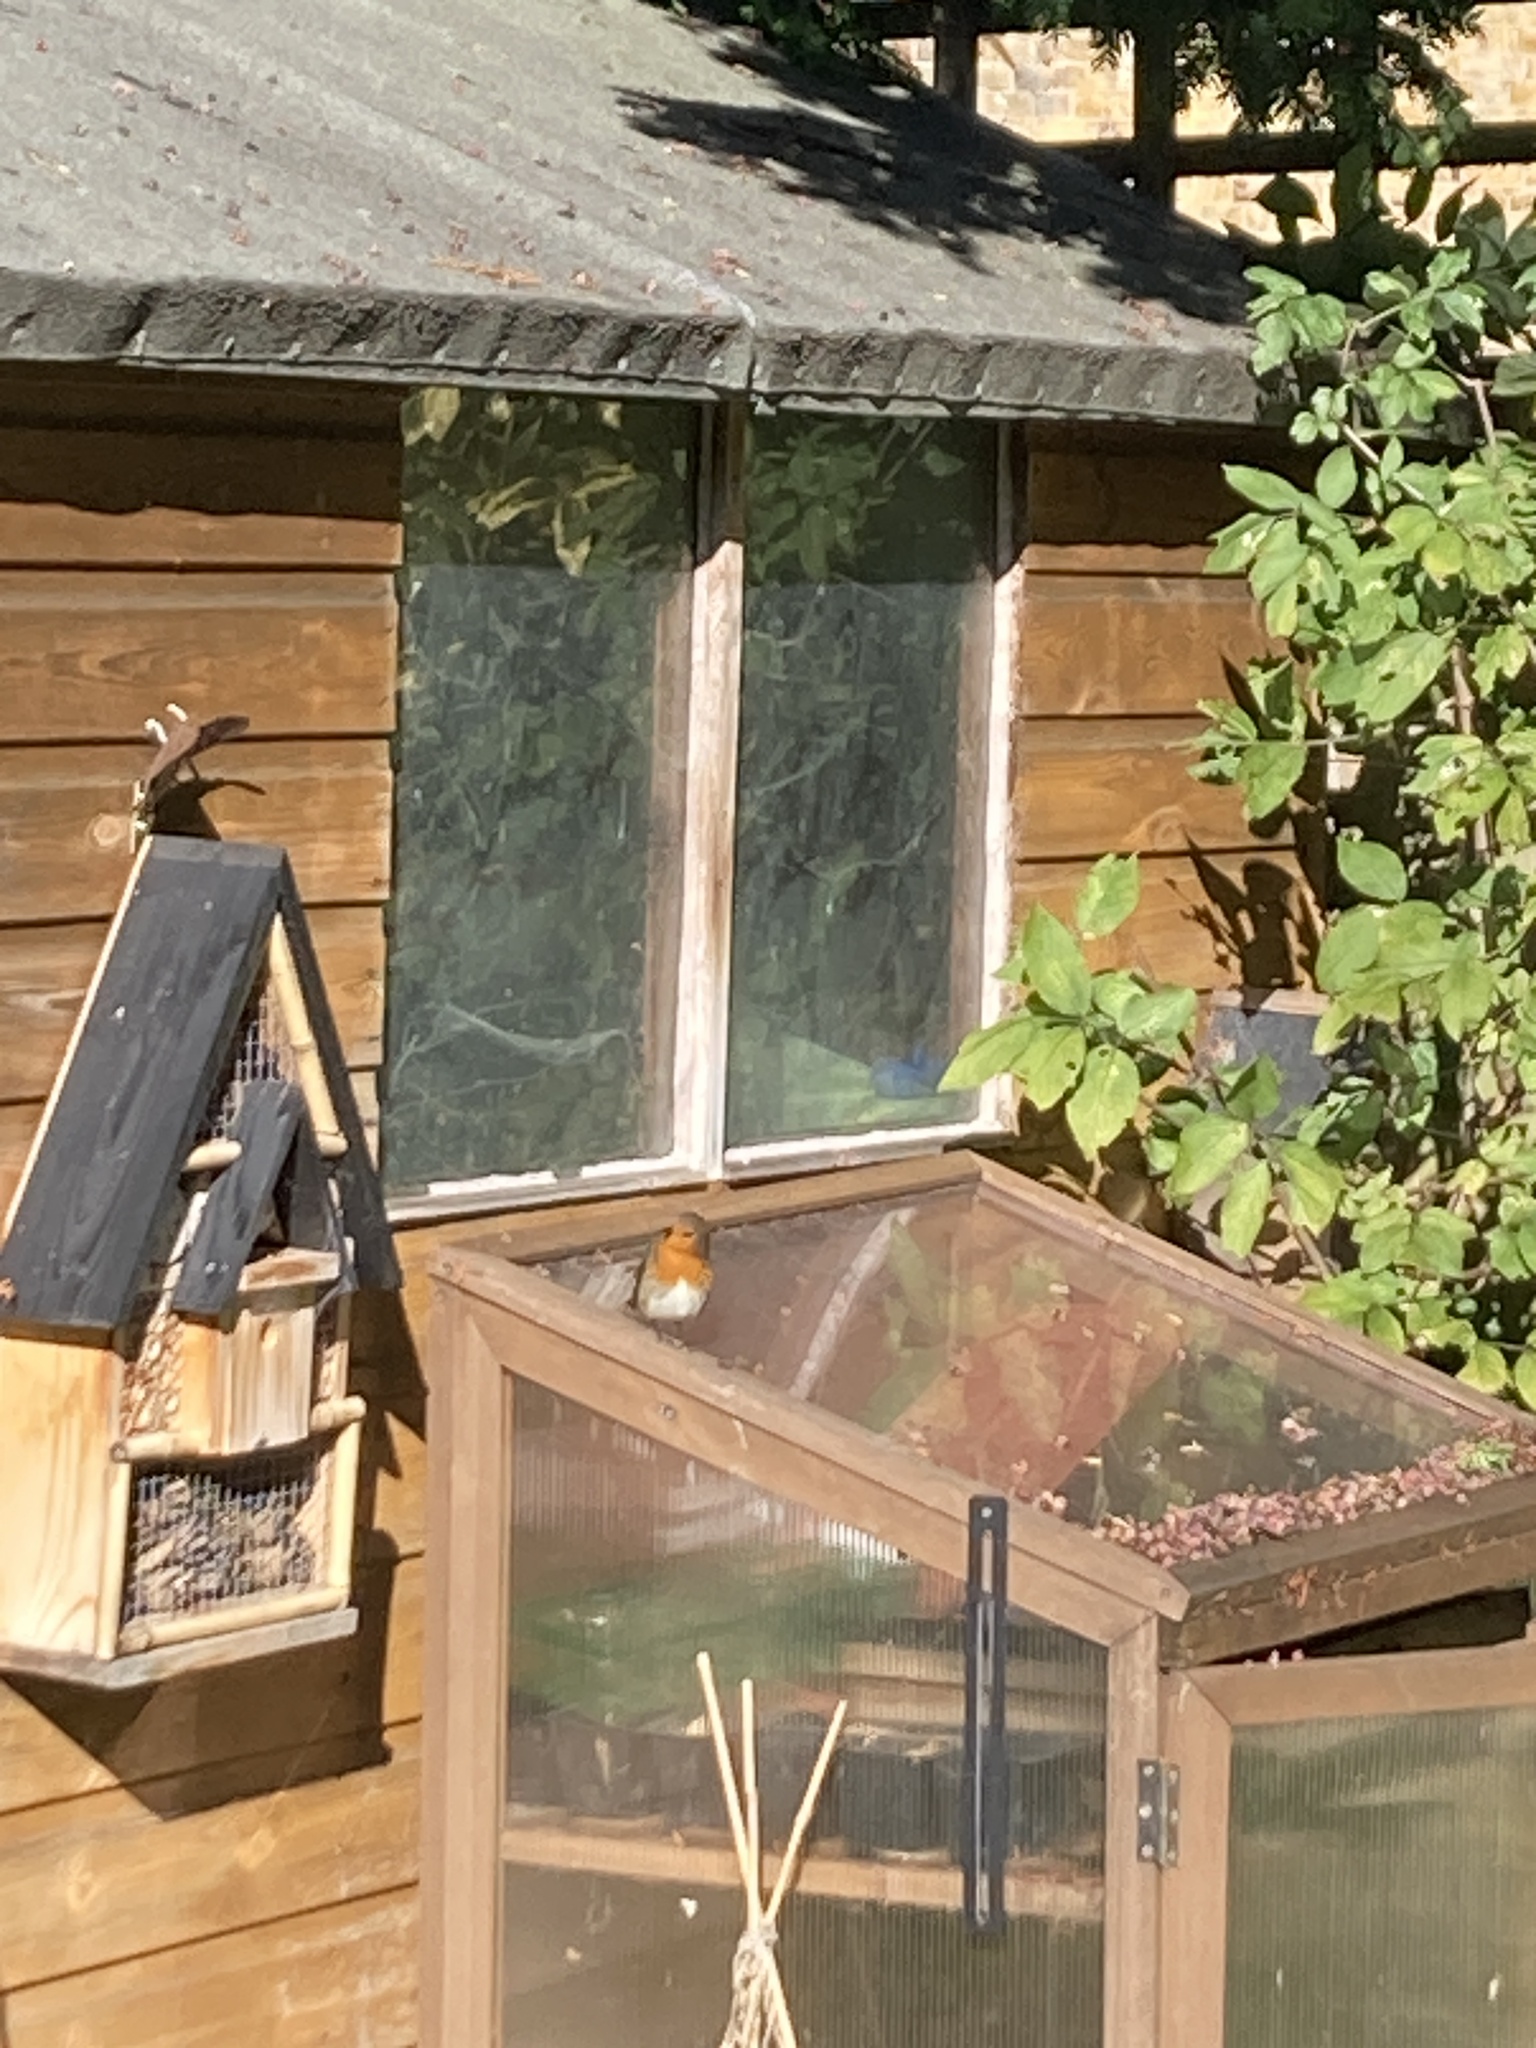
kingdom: Animalia
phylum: Chordata
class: Aves
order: Passeriformes
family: Muscicapidae
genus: Erithacus
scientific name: Erithacus rubecula
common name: European robin
